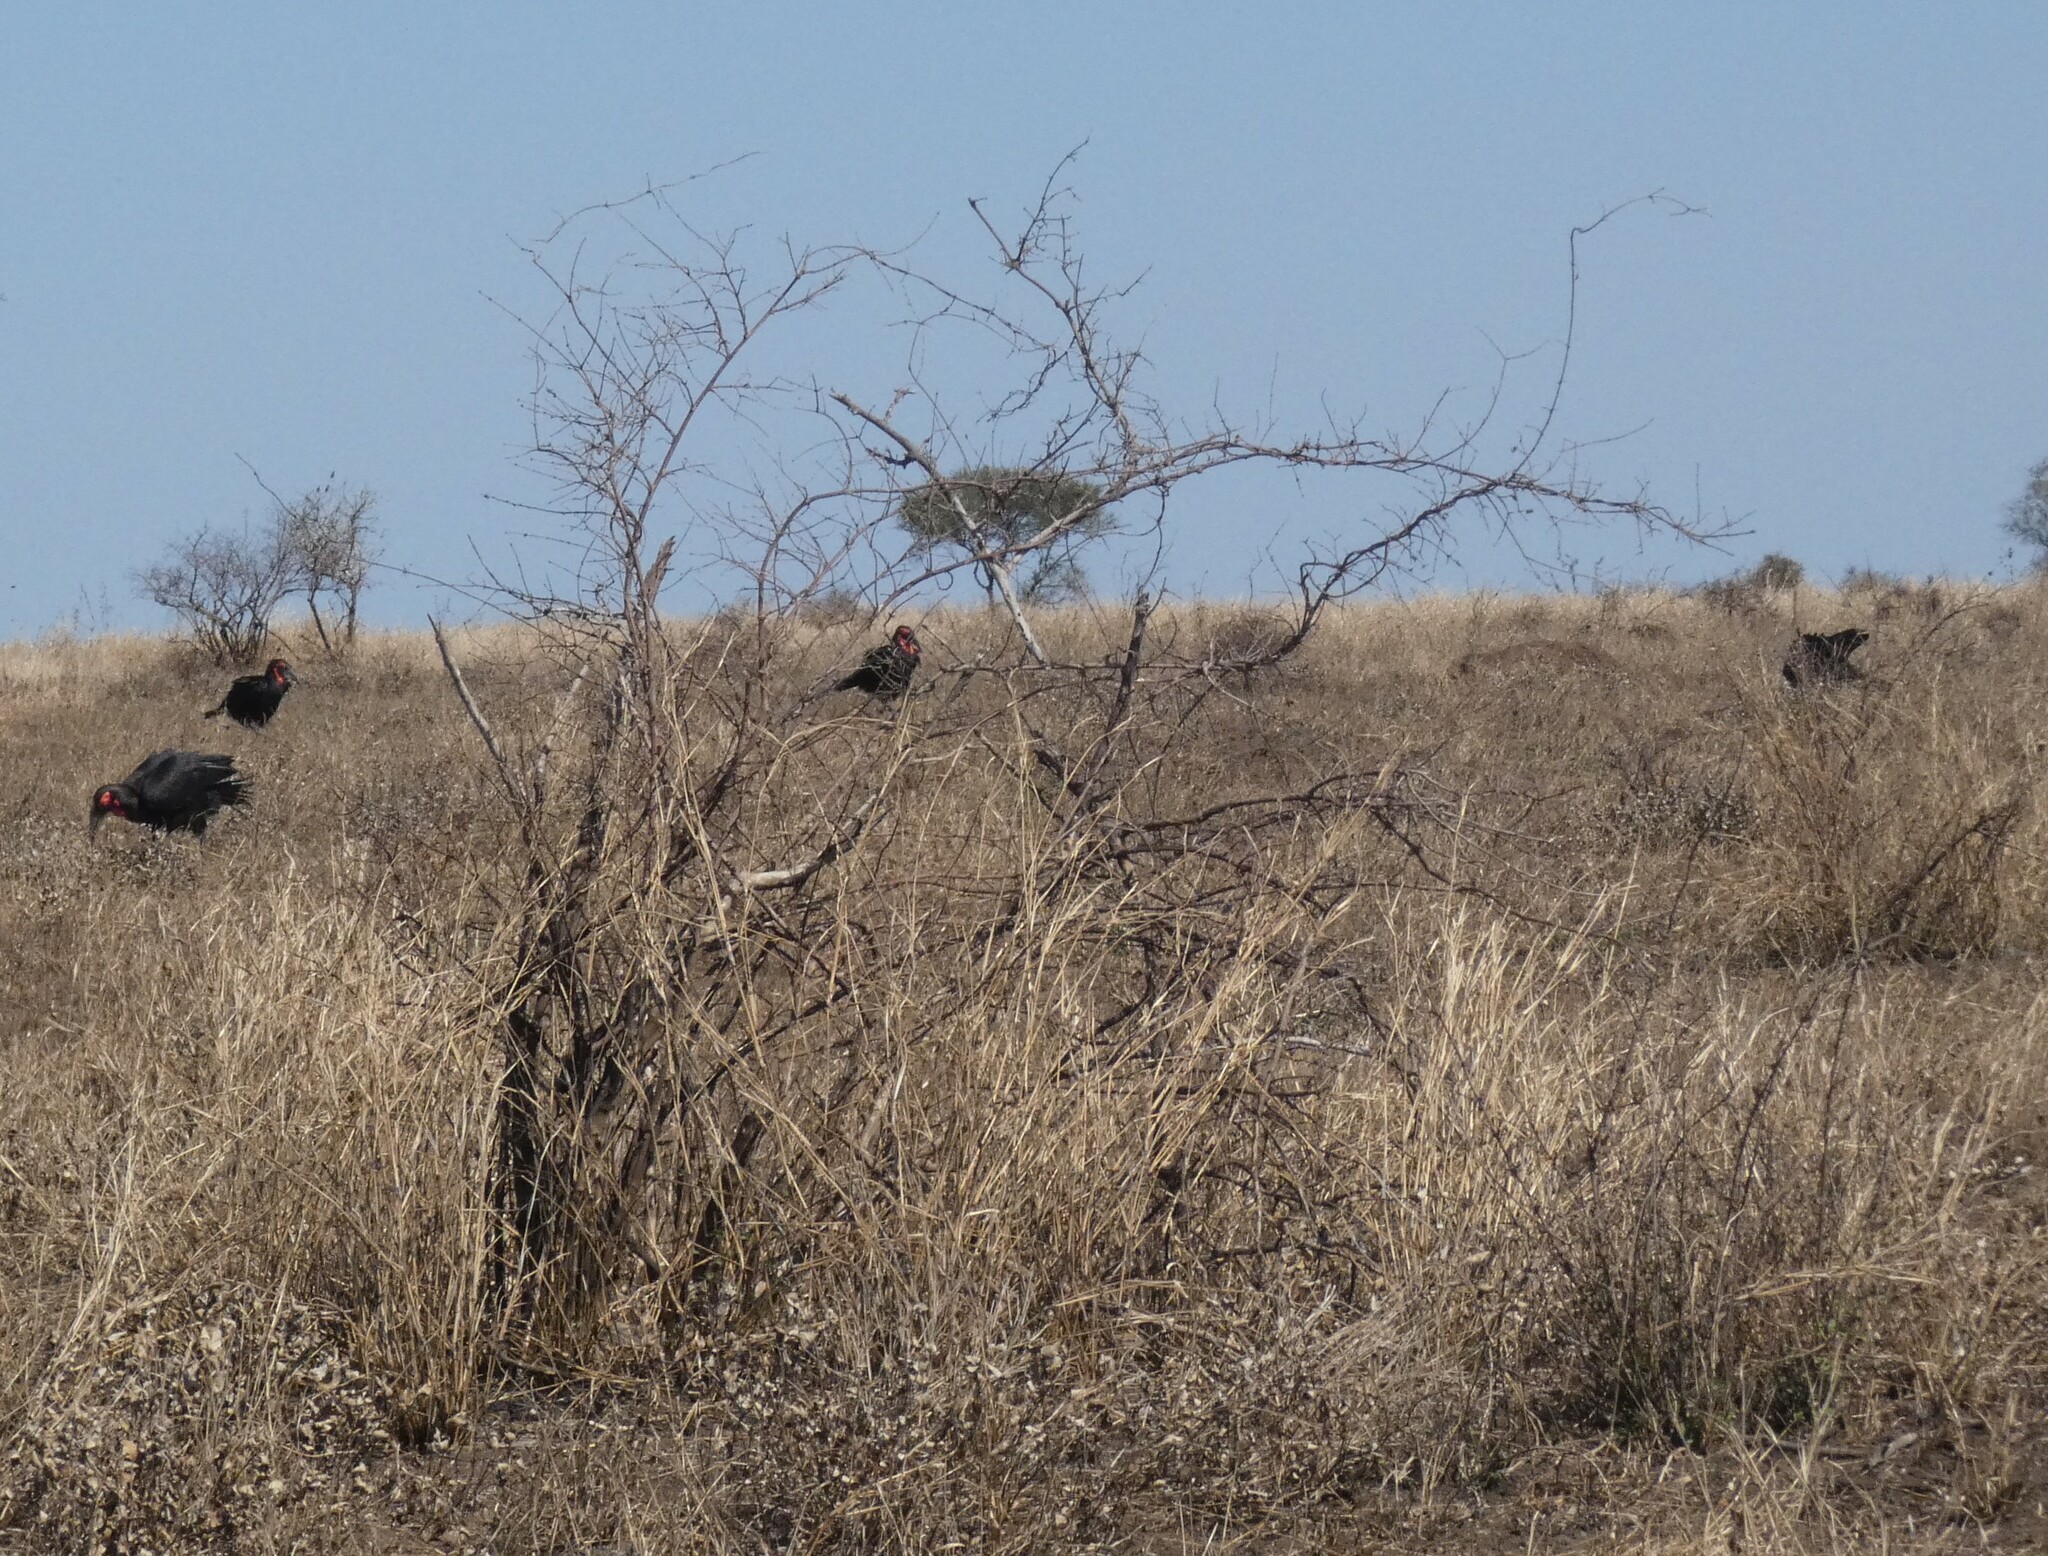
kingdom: Animalia
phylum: Chordata
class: Aves
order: Bucerotiformes
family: Bucorvidae
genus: Bucorvus
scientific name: Bucorvus leadbeateri
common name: Southern ground-hornbill
